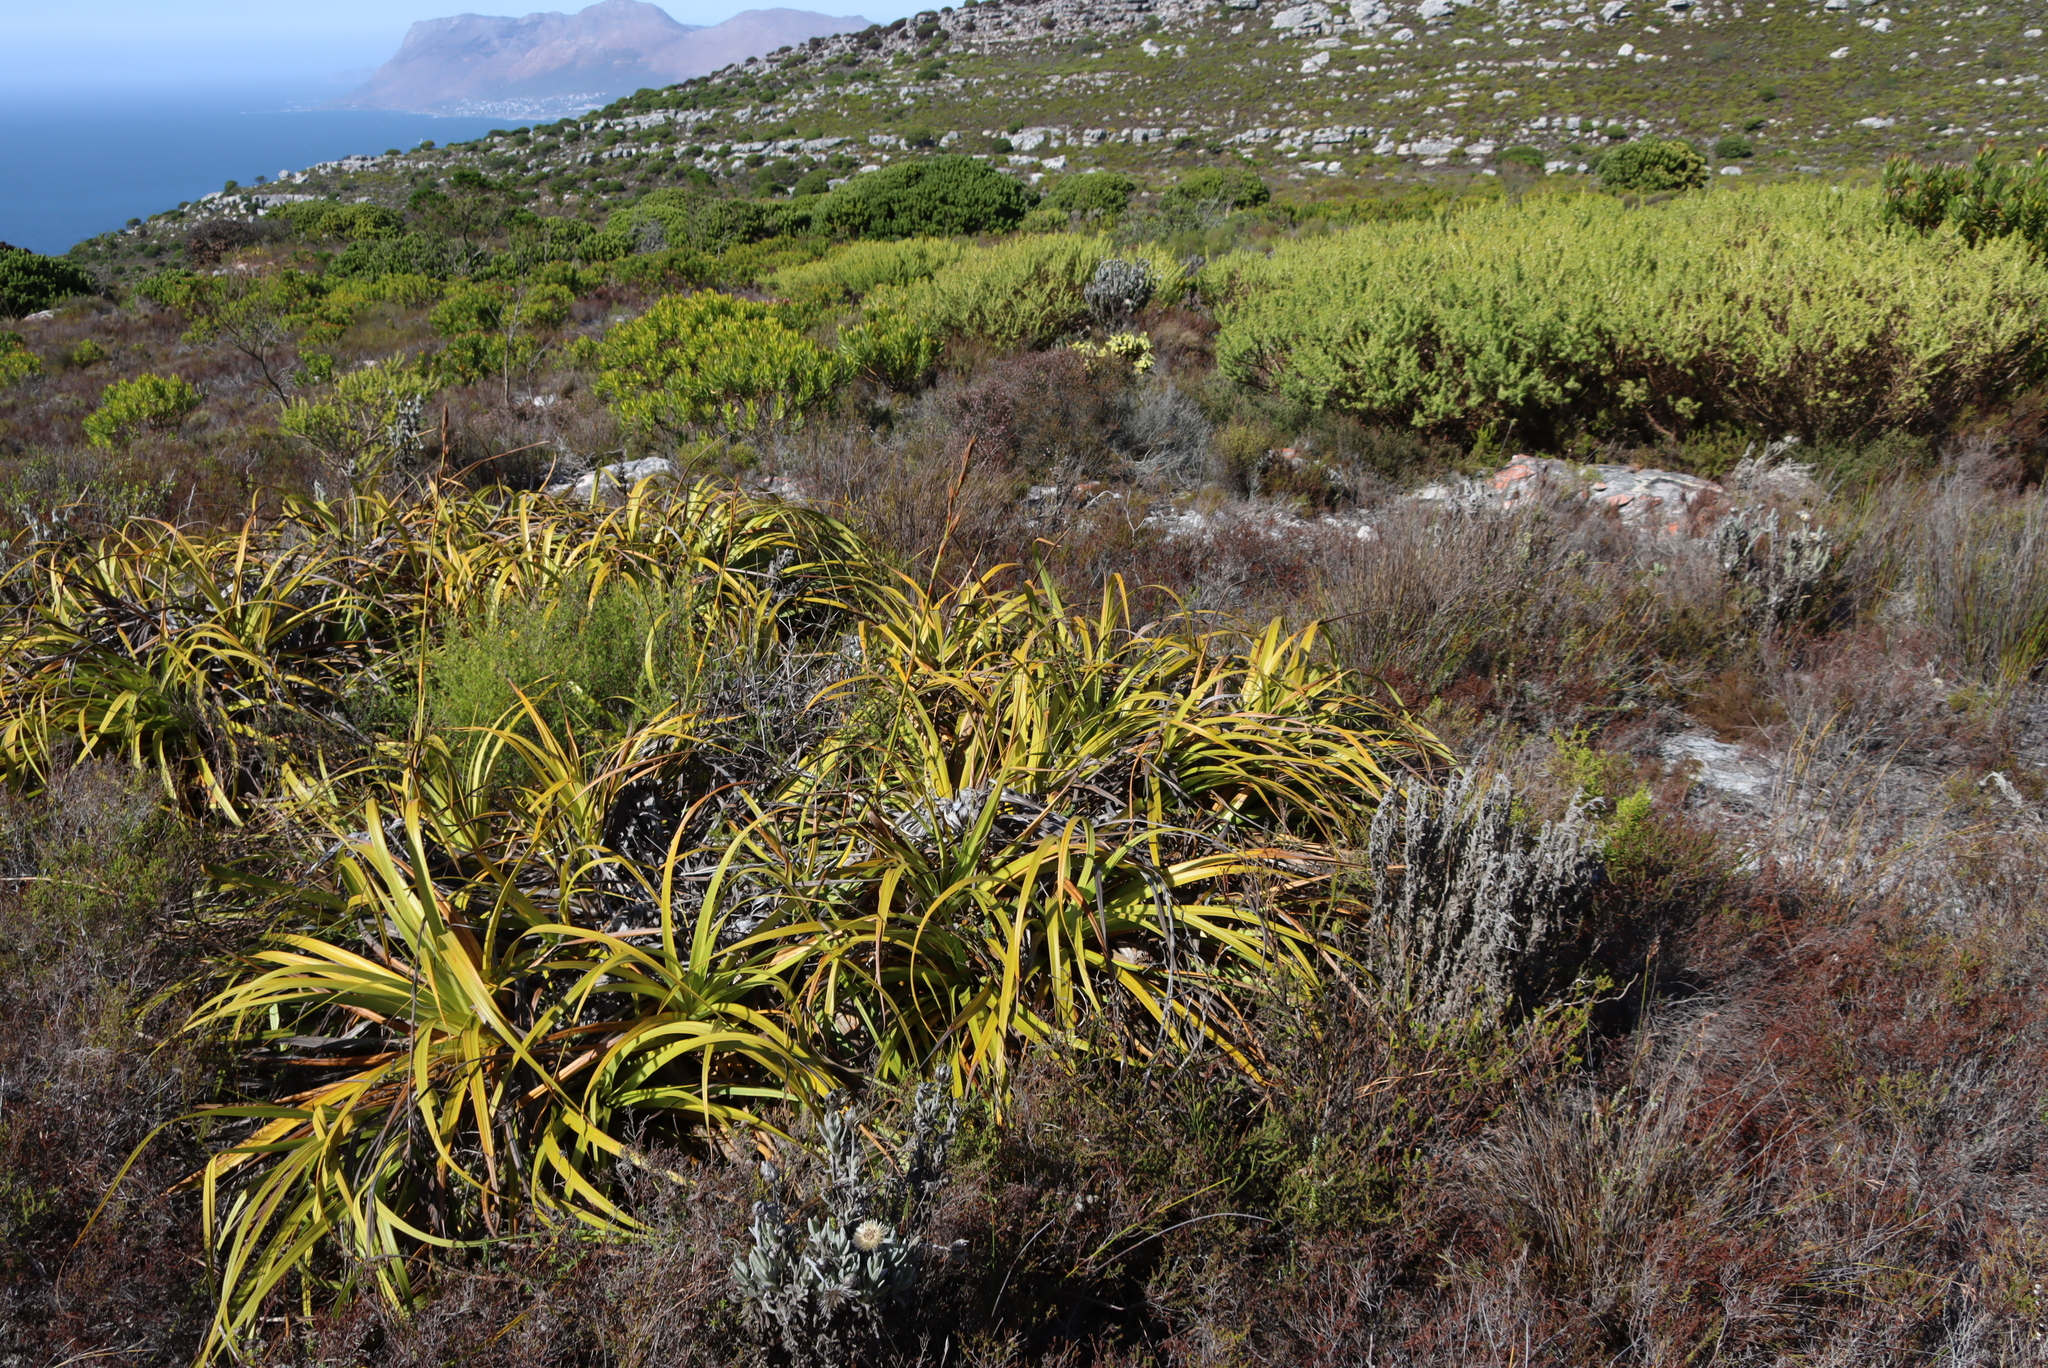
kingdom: Plantae
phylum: Tracheophyta
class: Liliopsida
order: Poales
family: Cyperaceae
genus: Tetraria
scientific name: Tetraria thermalis
